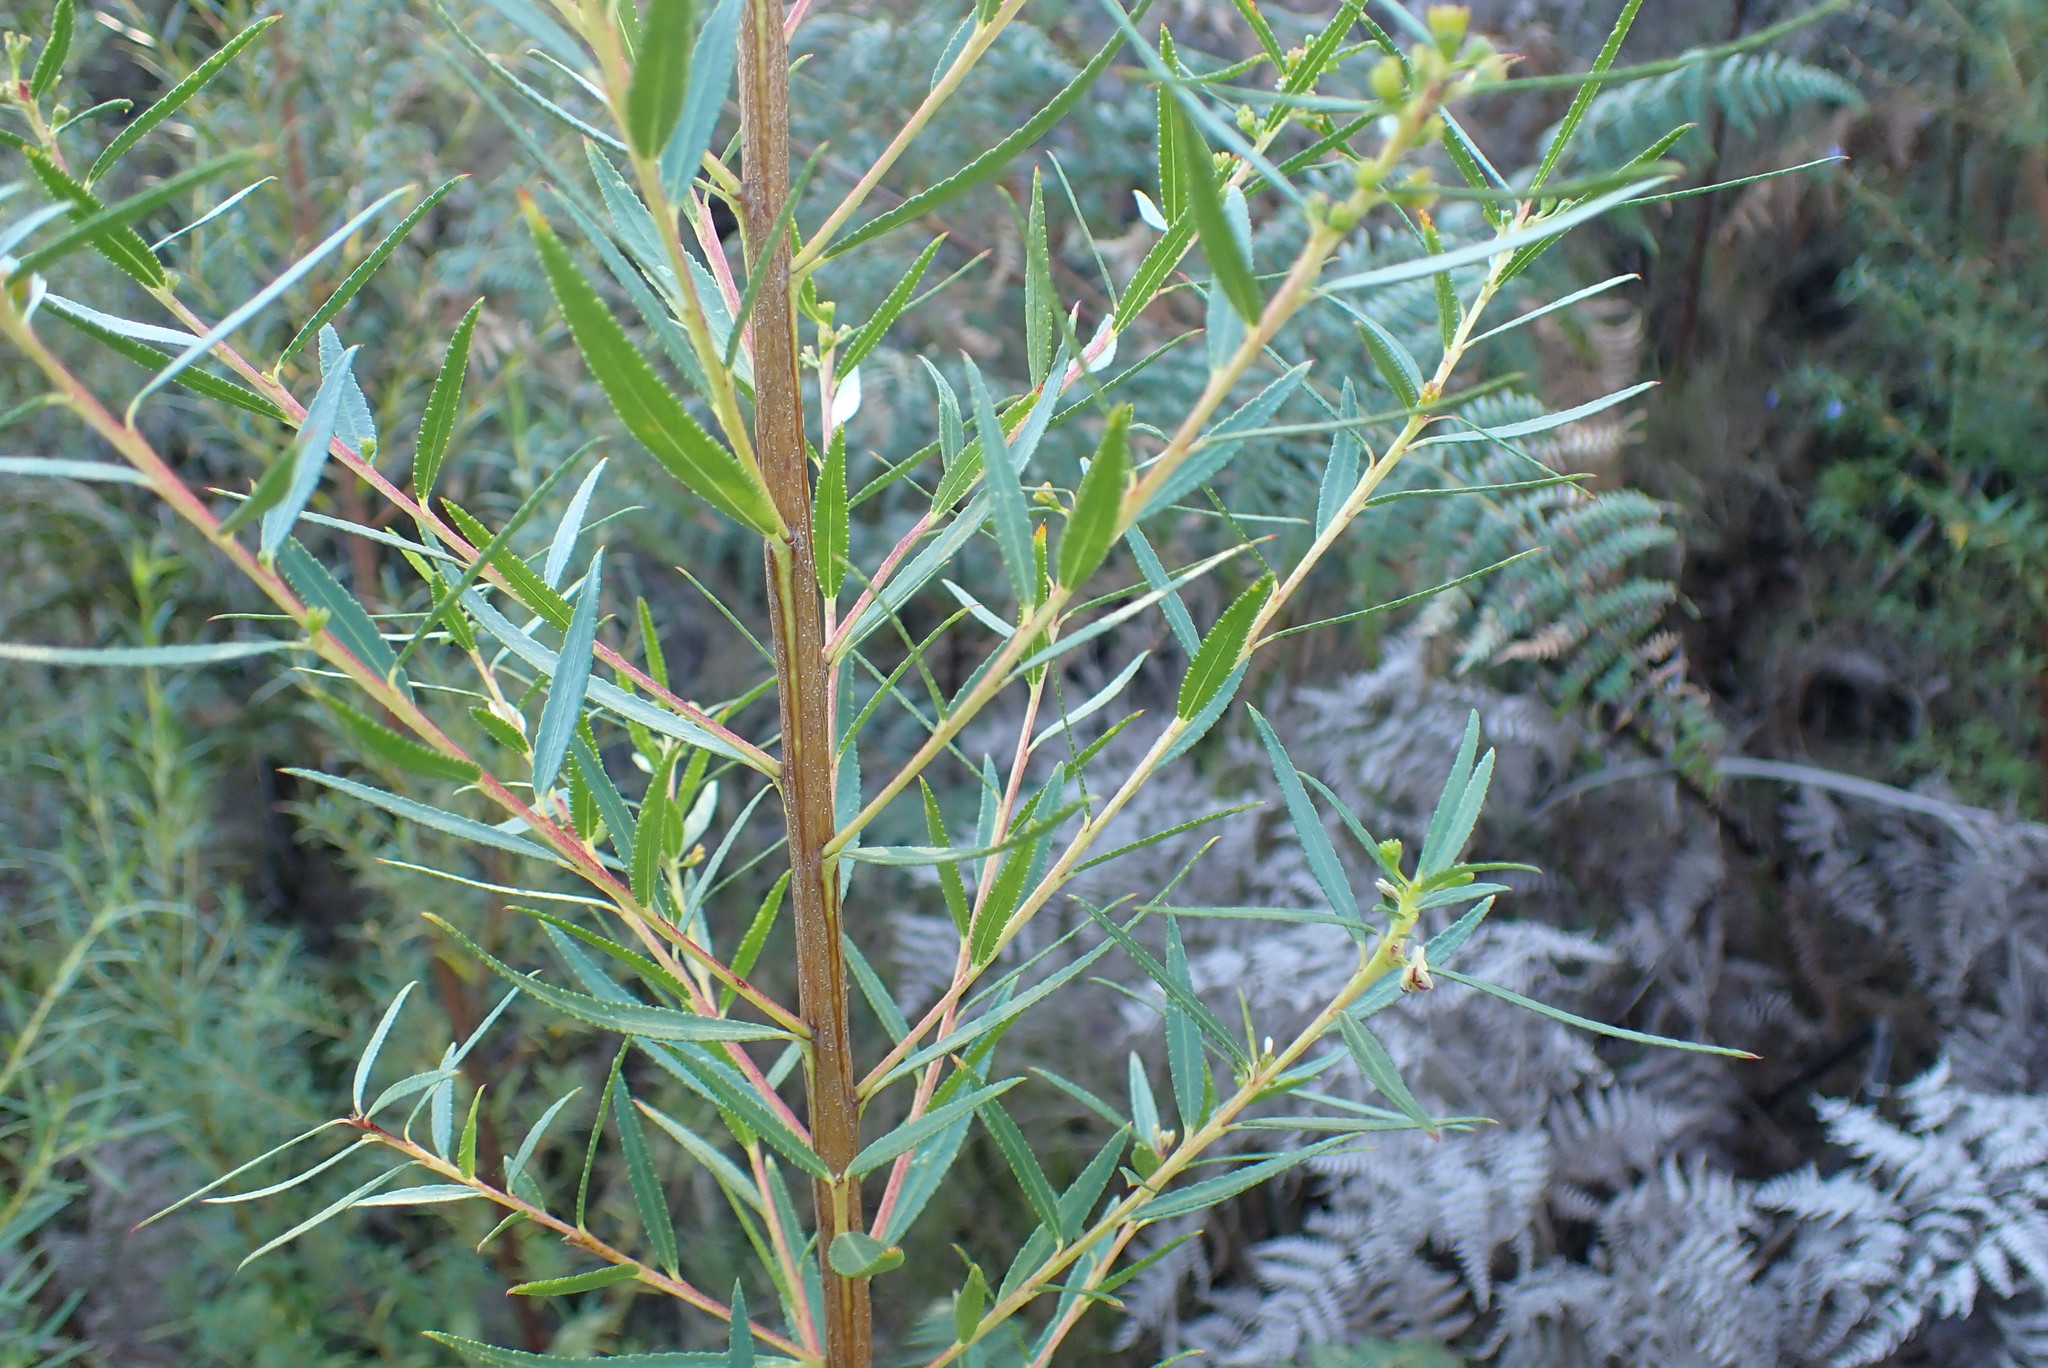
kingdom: Plantae
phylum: Tracheophyta
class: Magnoliopsida
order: Sapindales
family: Rutaceae
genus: Empleurum
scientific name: Empleurum unicapsulare
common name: False buchu
